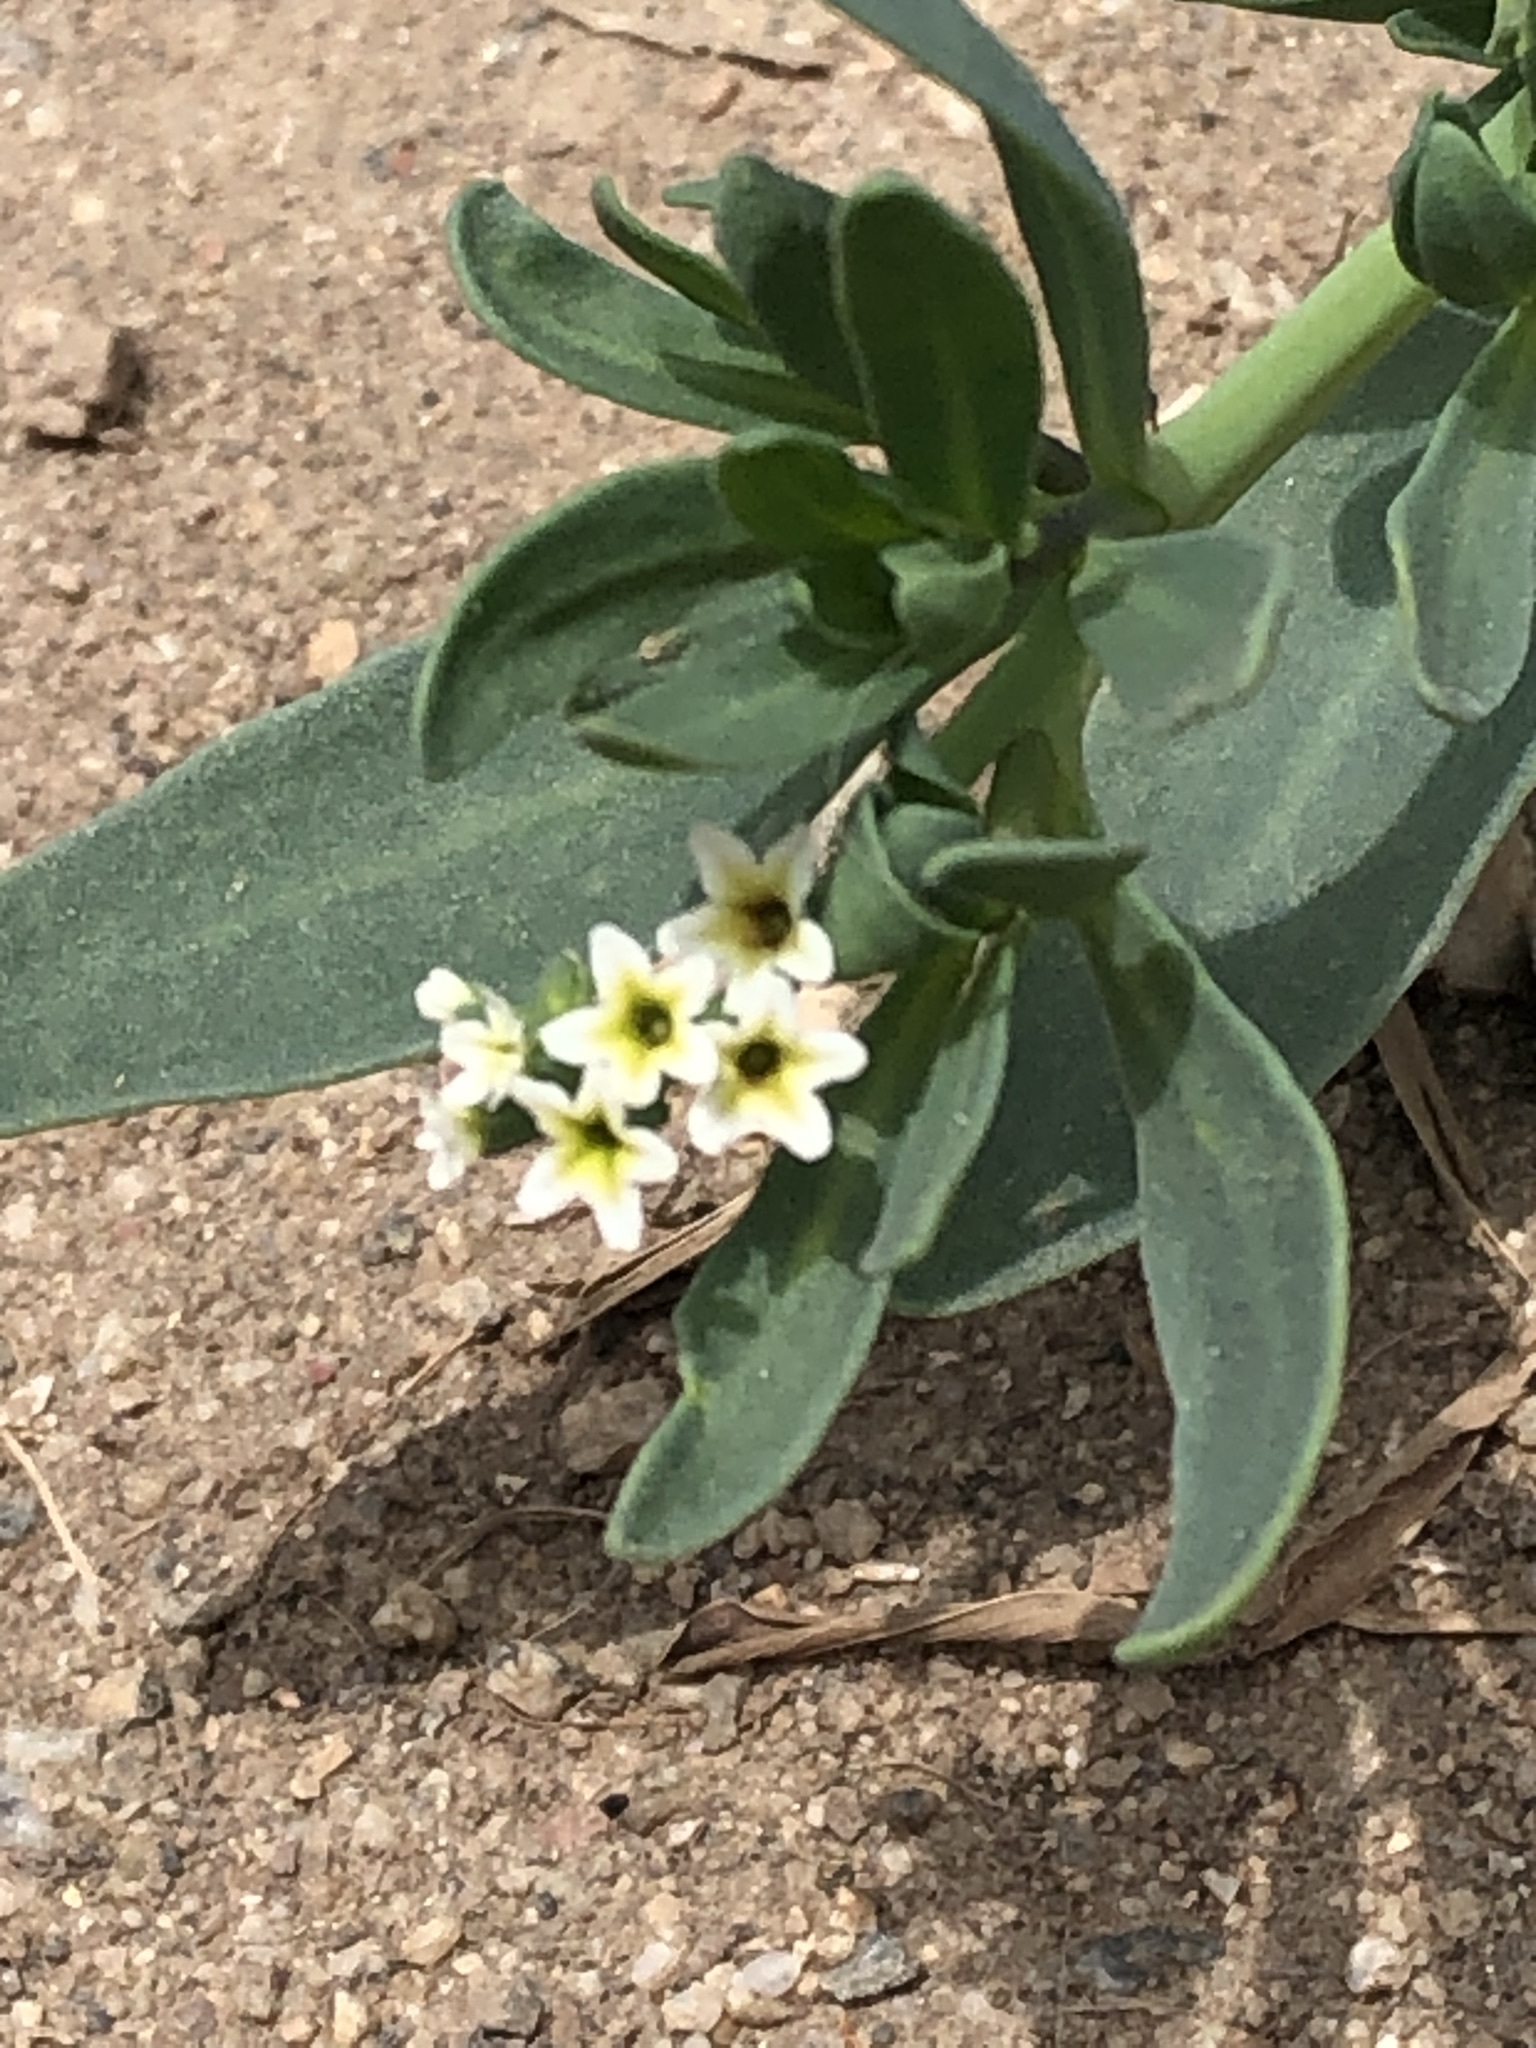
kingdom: Plantae
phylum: Tracheophyta
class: Magnoliopsida
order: Boraginales
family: Heliotropiaceae
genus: Heliotropium
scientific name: Heliotropium curassavicum
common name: Seaside heliotrope
